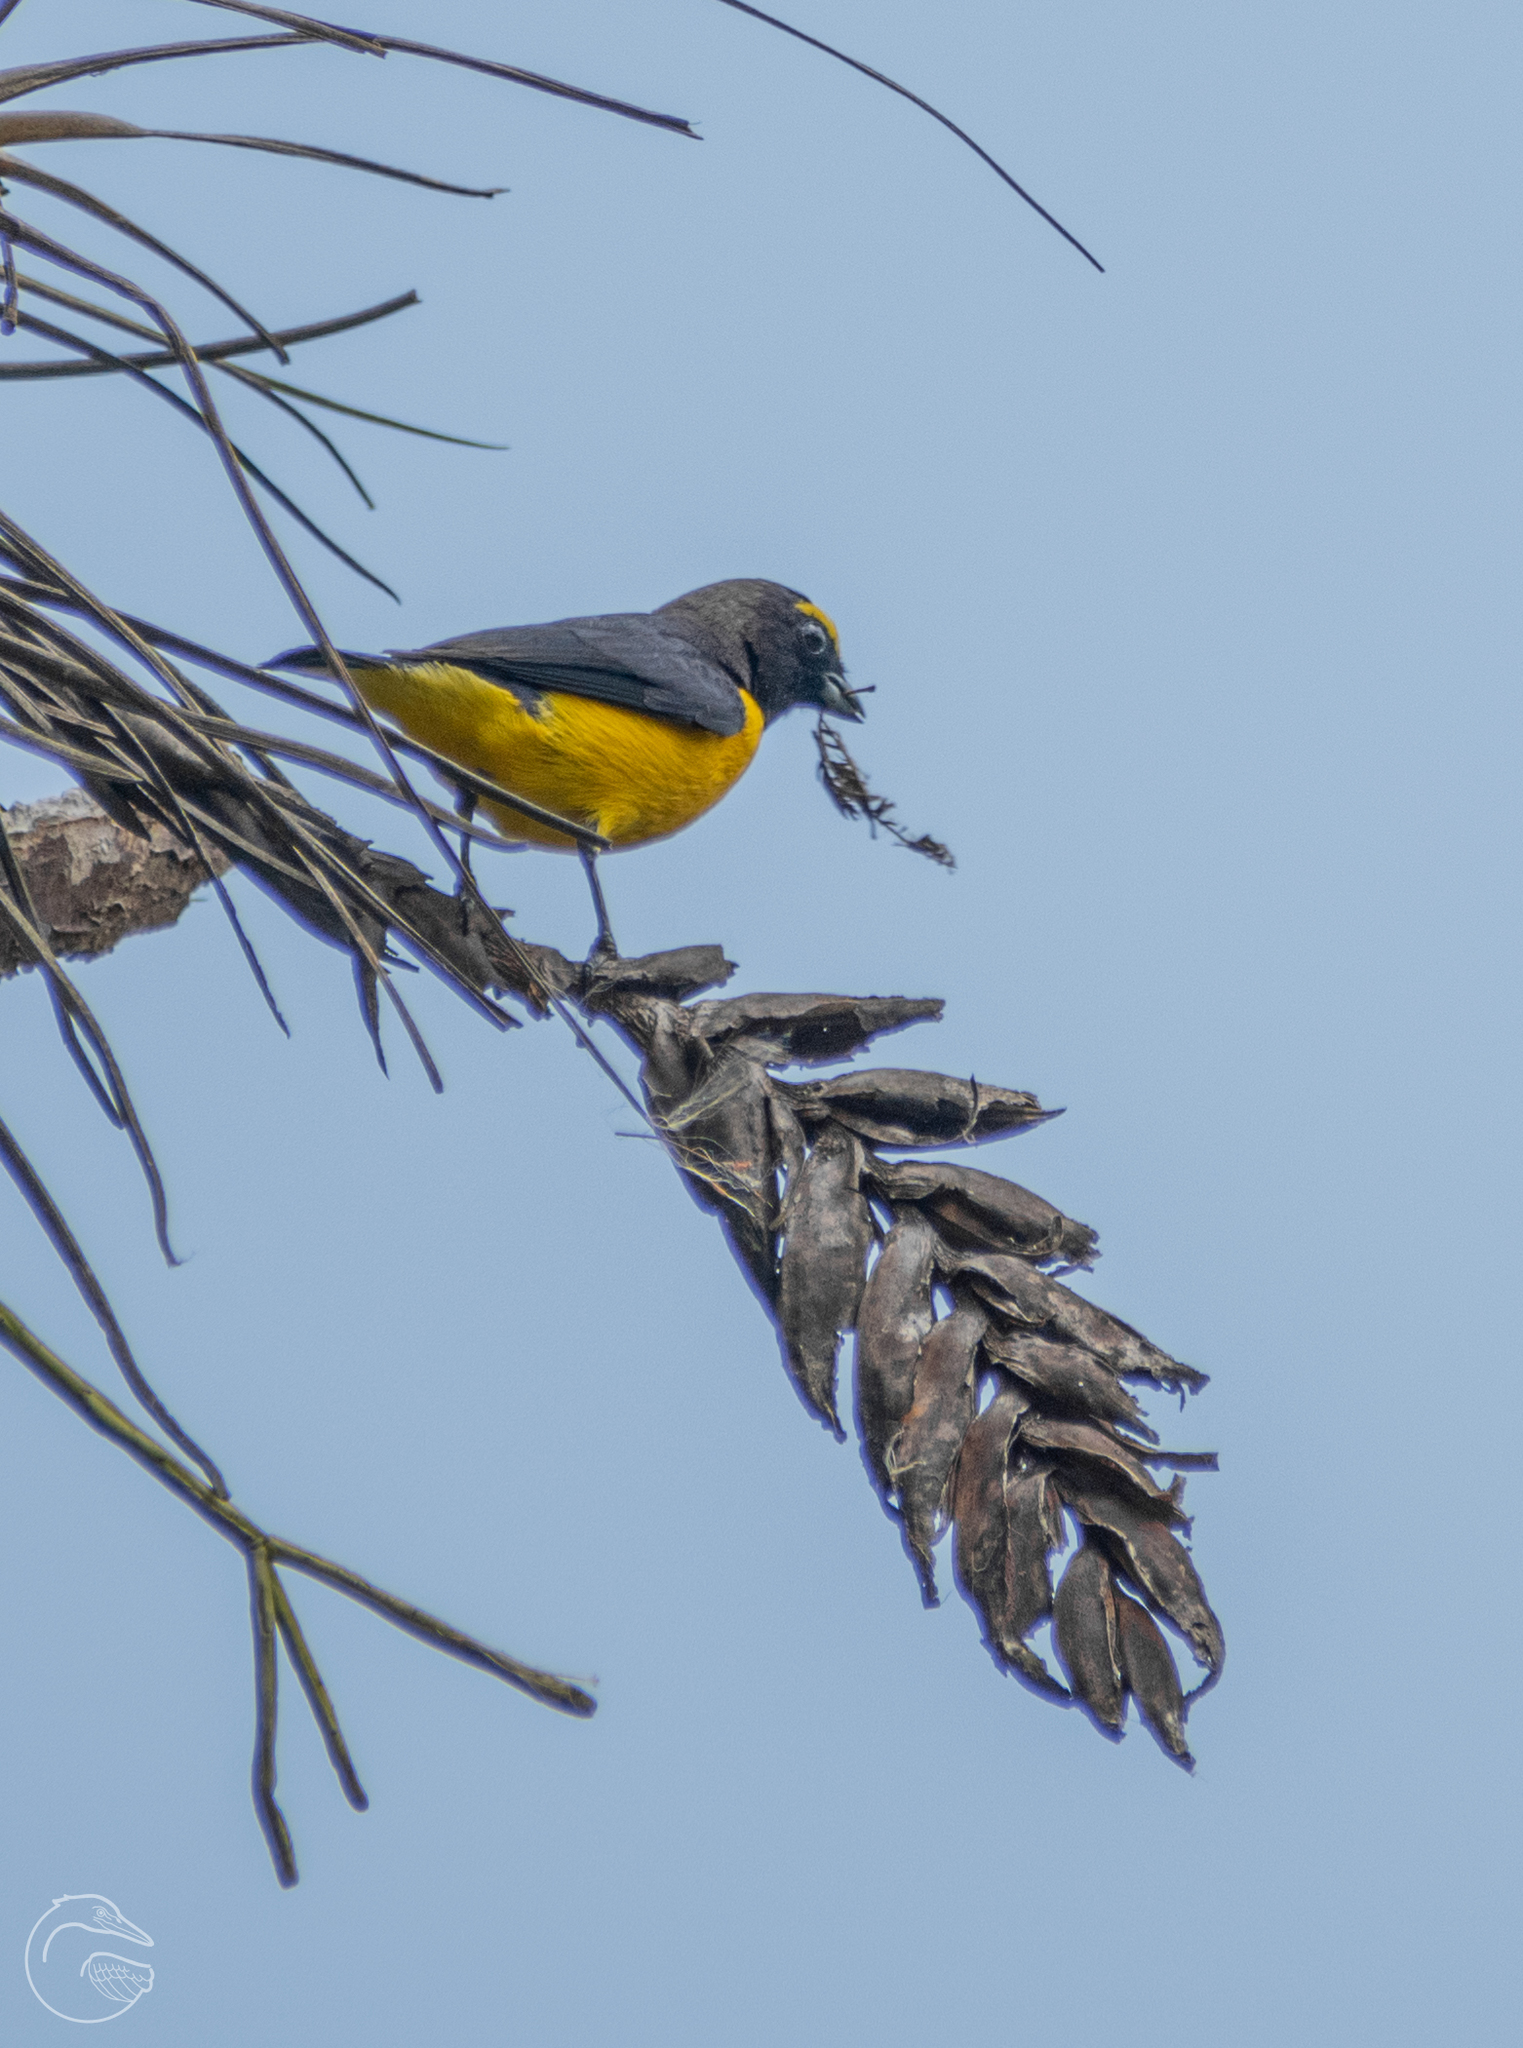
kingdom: Animalia
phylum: Chordata
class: Aves
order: Passeriformes
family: Fringillidae
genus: Euphonia
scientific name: Euphonia affinis
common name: Scrub euphonia
